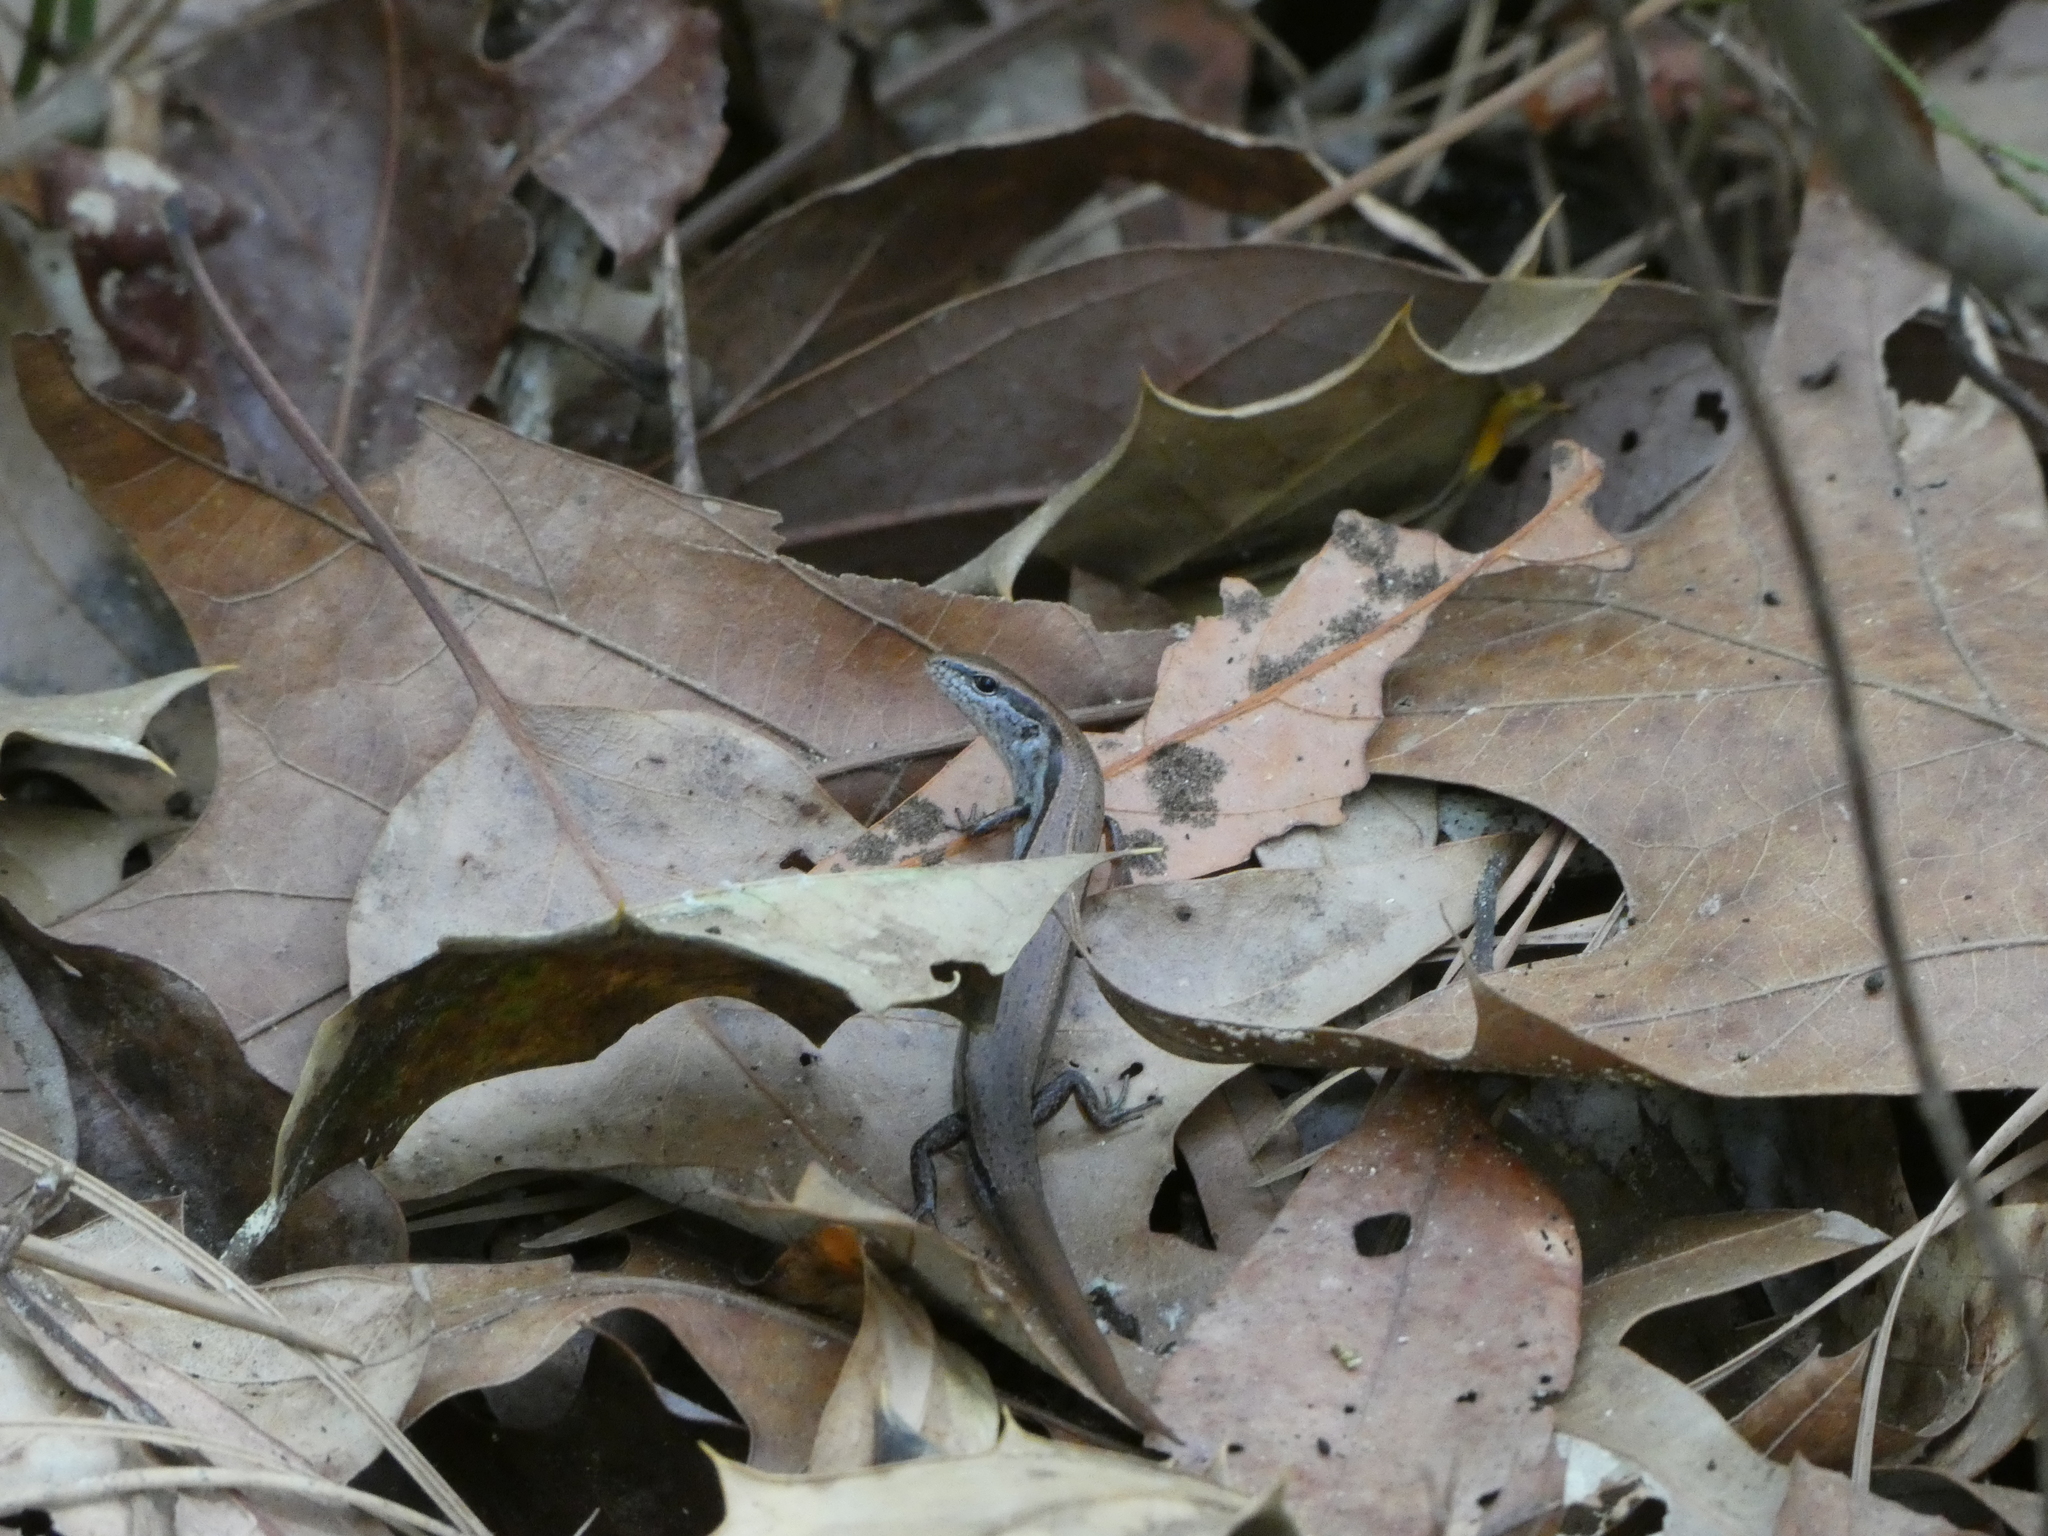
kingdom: Animalia
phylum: Chordata
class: Squamata
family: Scincidae
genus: Scincella
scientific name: Scincella lateralis
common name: Ground skink
